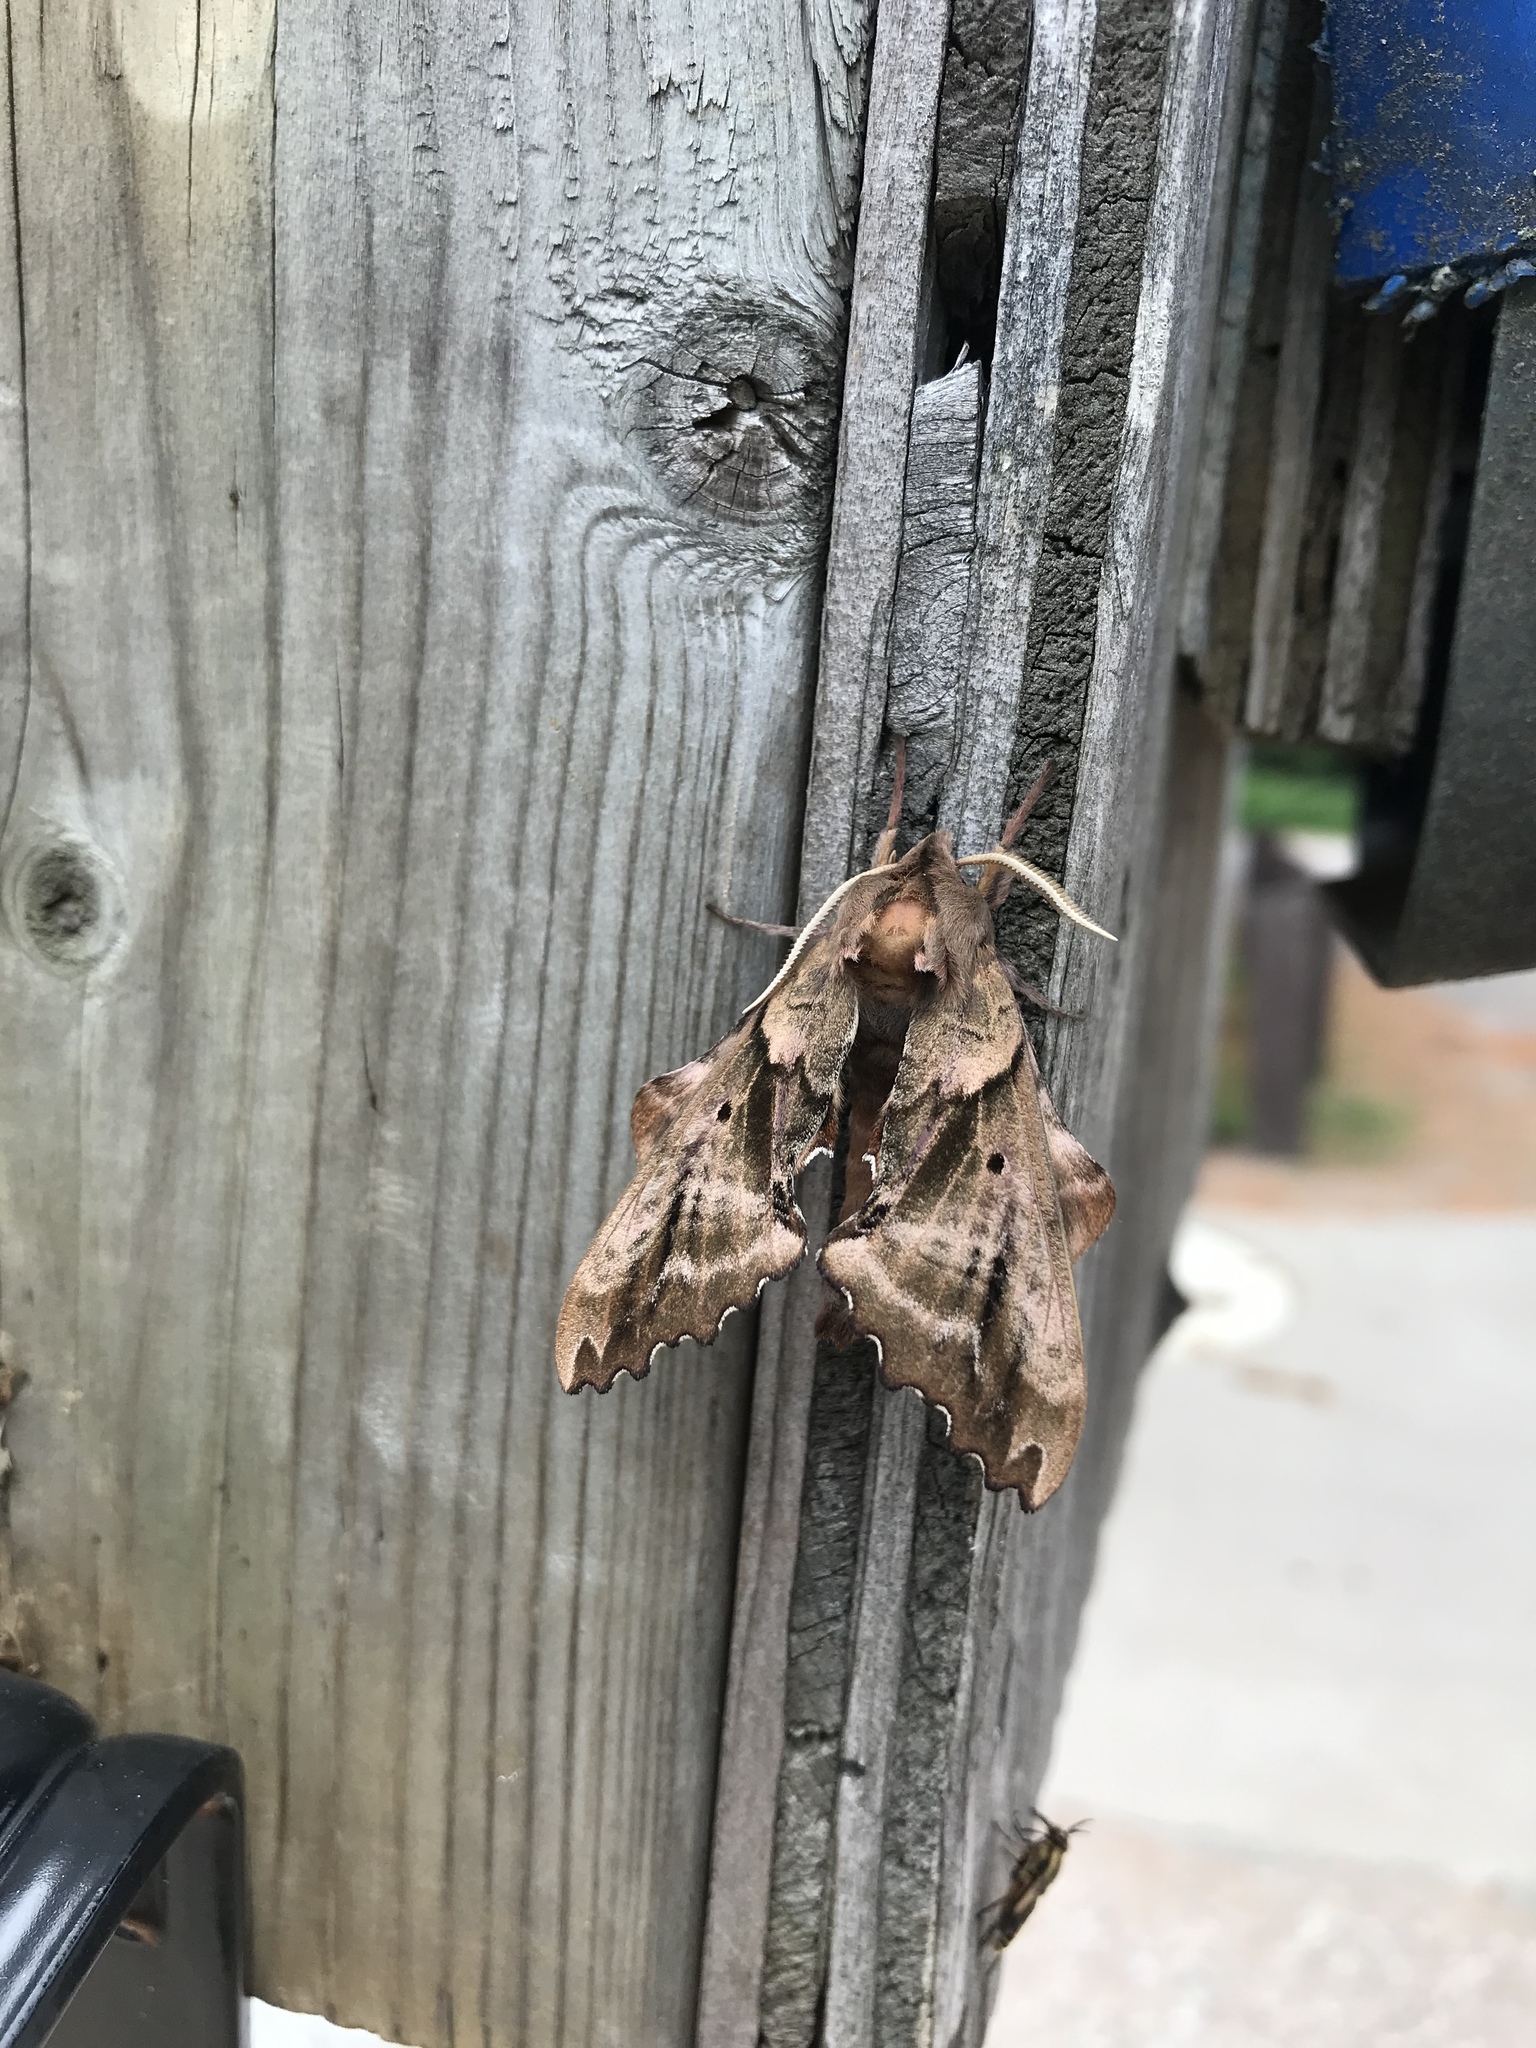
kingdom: Animalia
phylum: Arthropoda
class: Insecta
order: Lepidoptera
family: Sphingidae
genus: Paonias
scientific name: Paonias excaecata
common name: Blind-eyed sphinx
